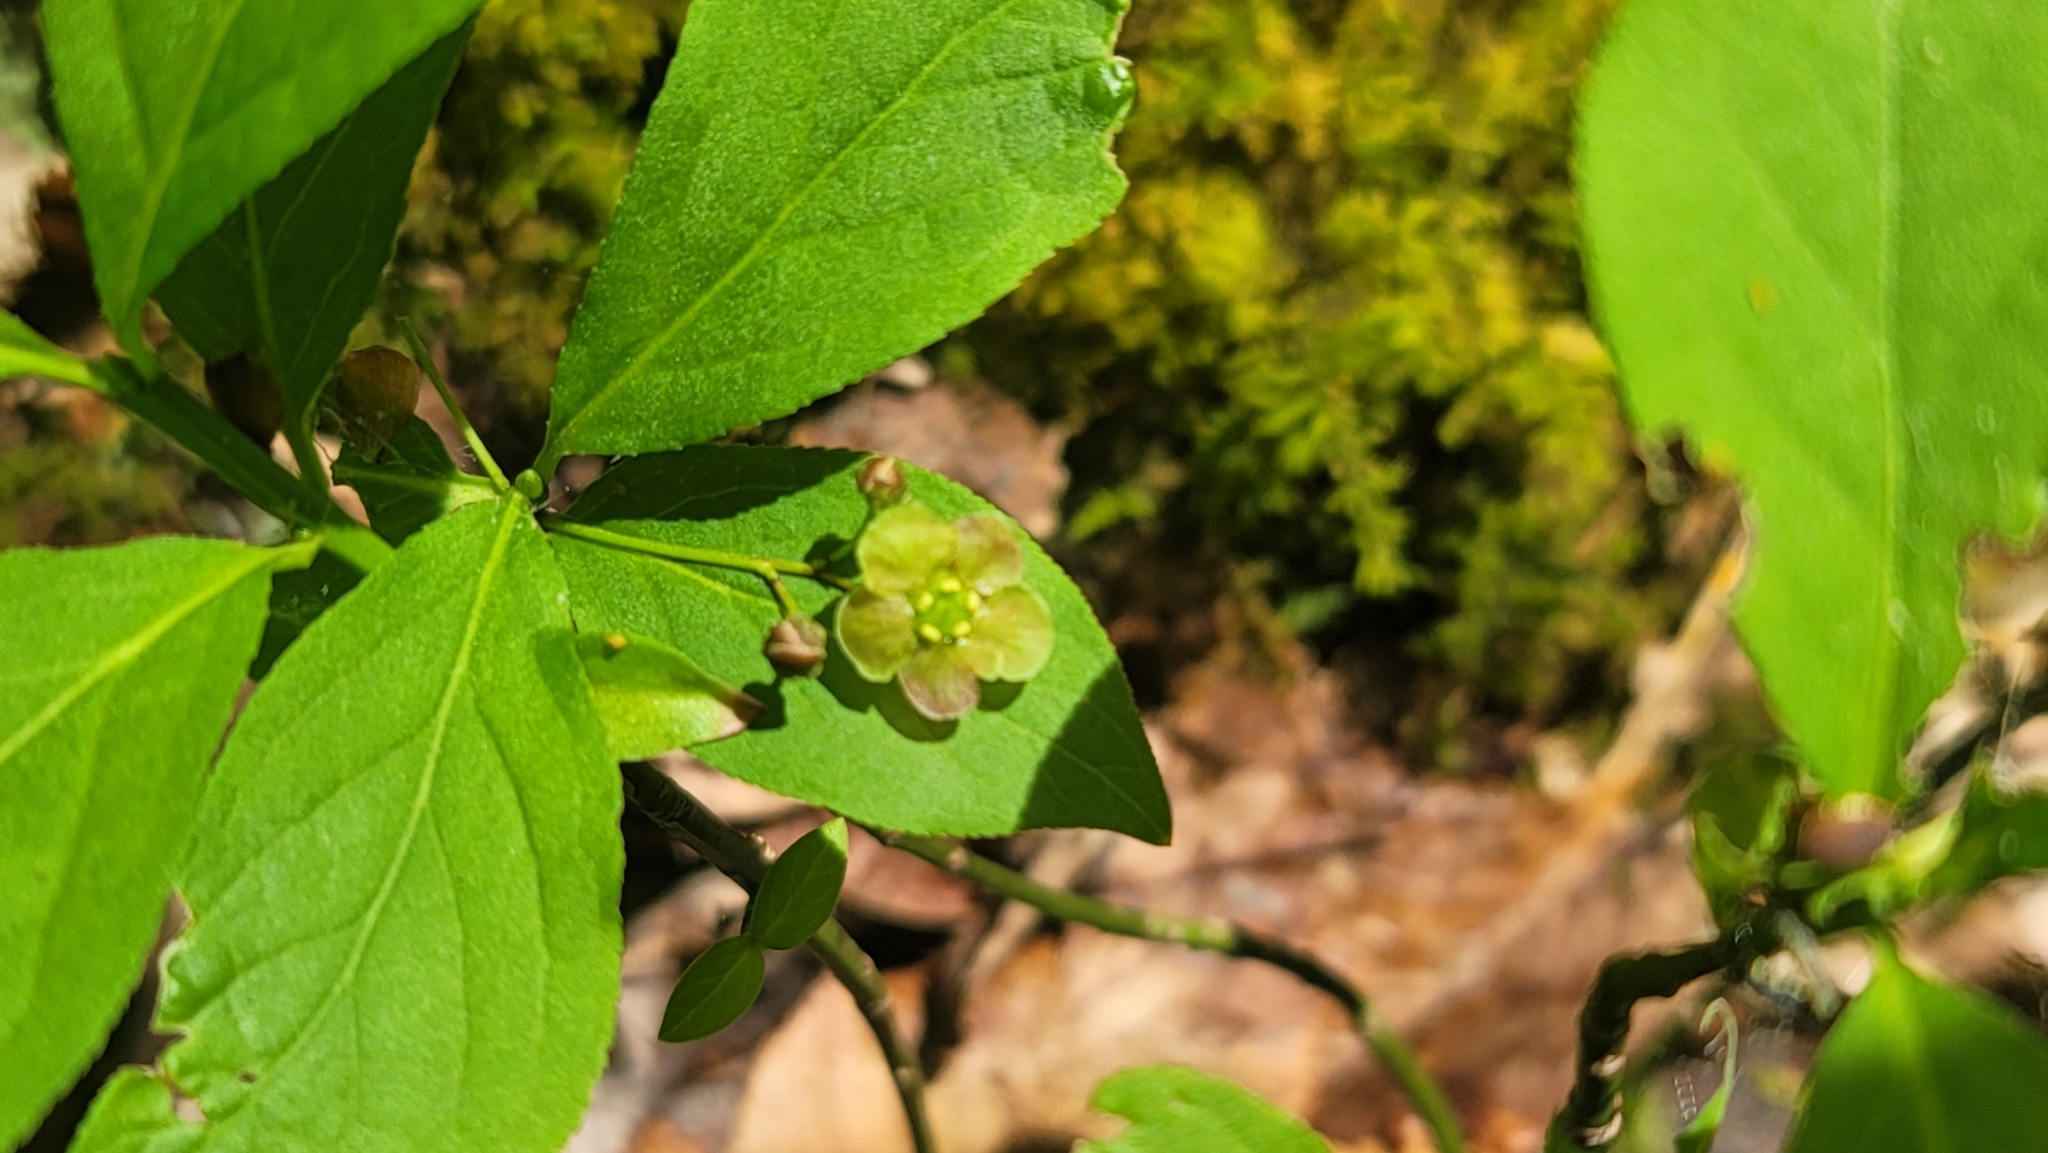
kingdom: Plantae
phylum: Tracheophyta
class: Magnoliopsida
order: Celastrales
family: Celastraceae
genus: Euonymus
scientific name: Euonymus obovatus
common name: Running strawberry-bush
